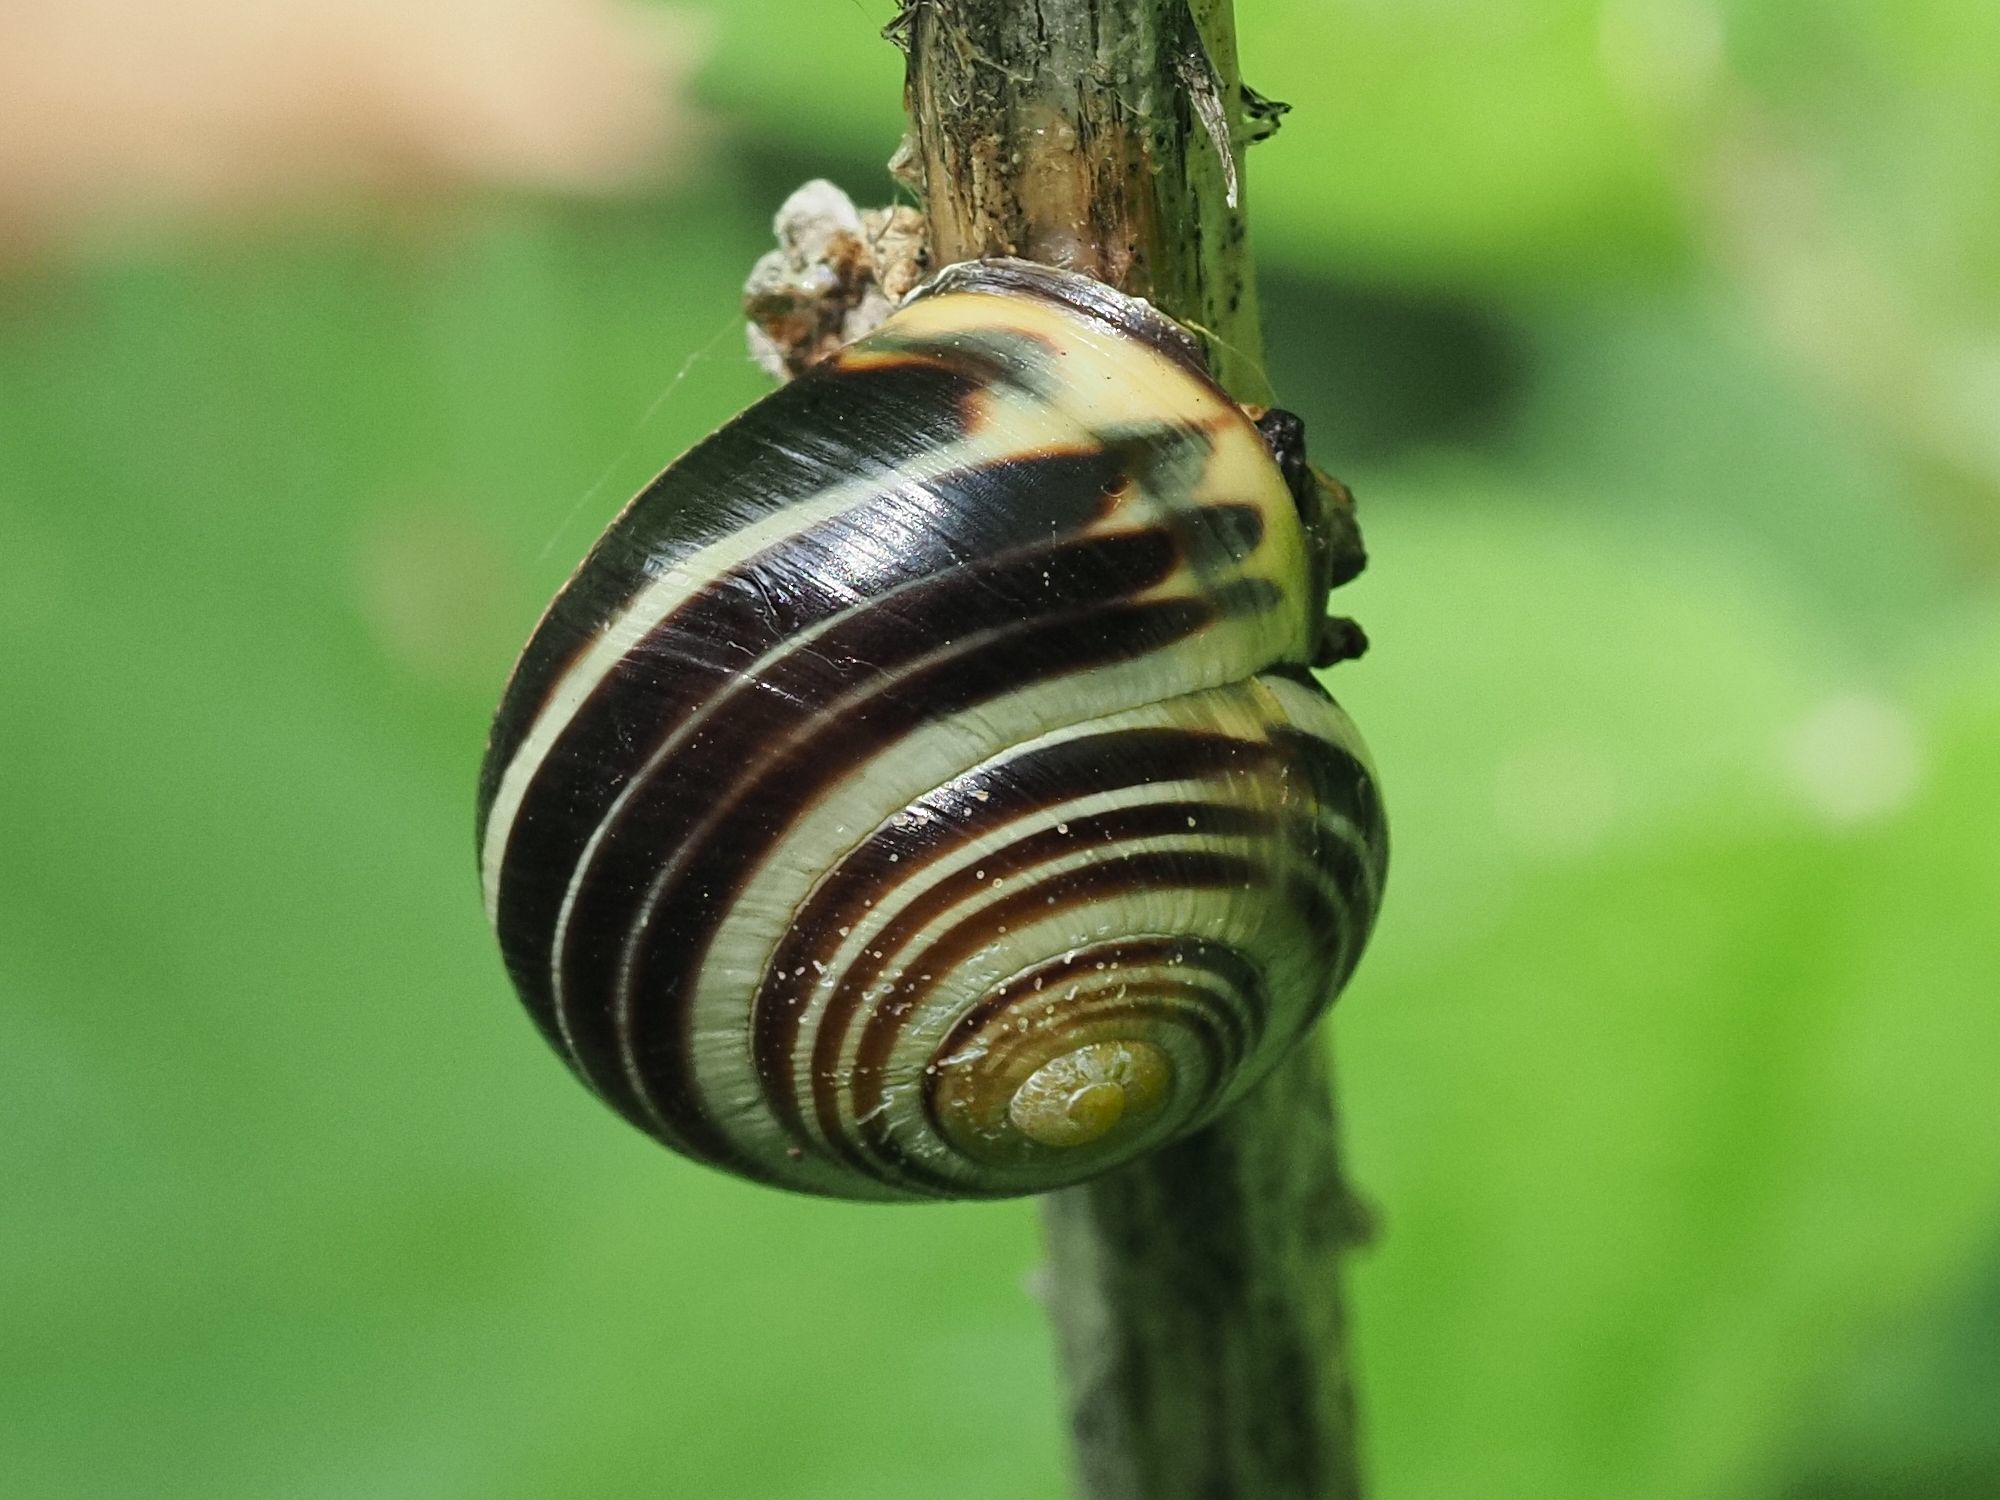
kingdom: Animalia
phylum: Mollusca
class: Gastropoda
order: Stylommatophora
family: Helicidae
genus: Cepaea
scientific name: Cepaea nemoralis
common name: Grovesnail
